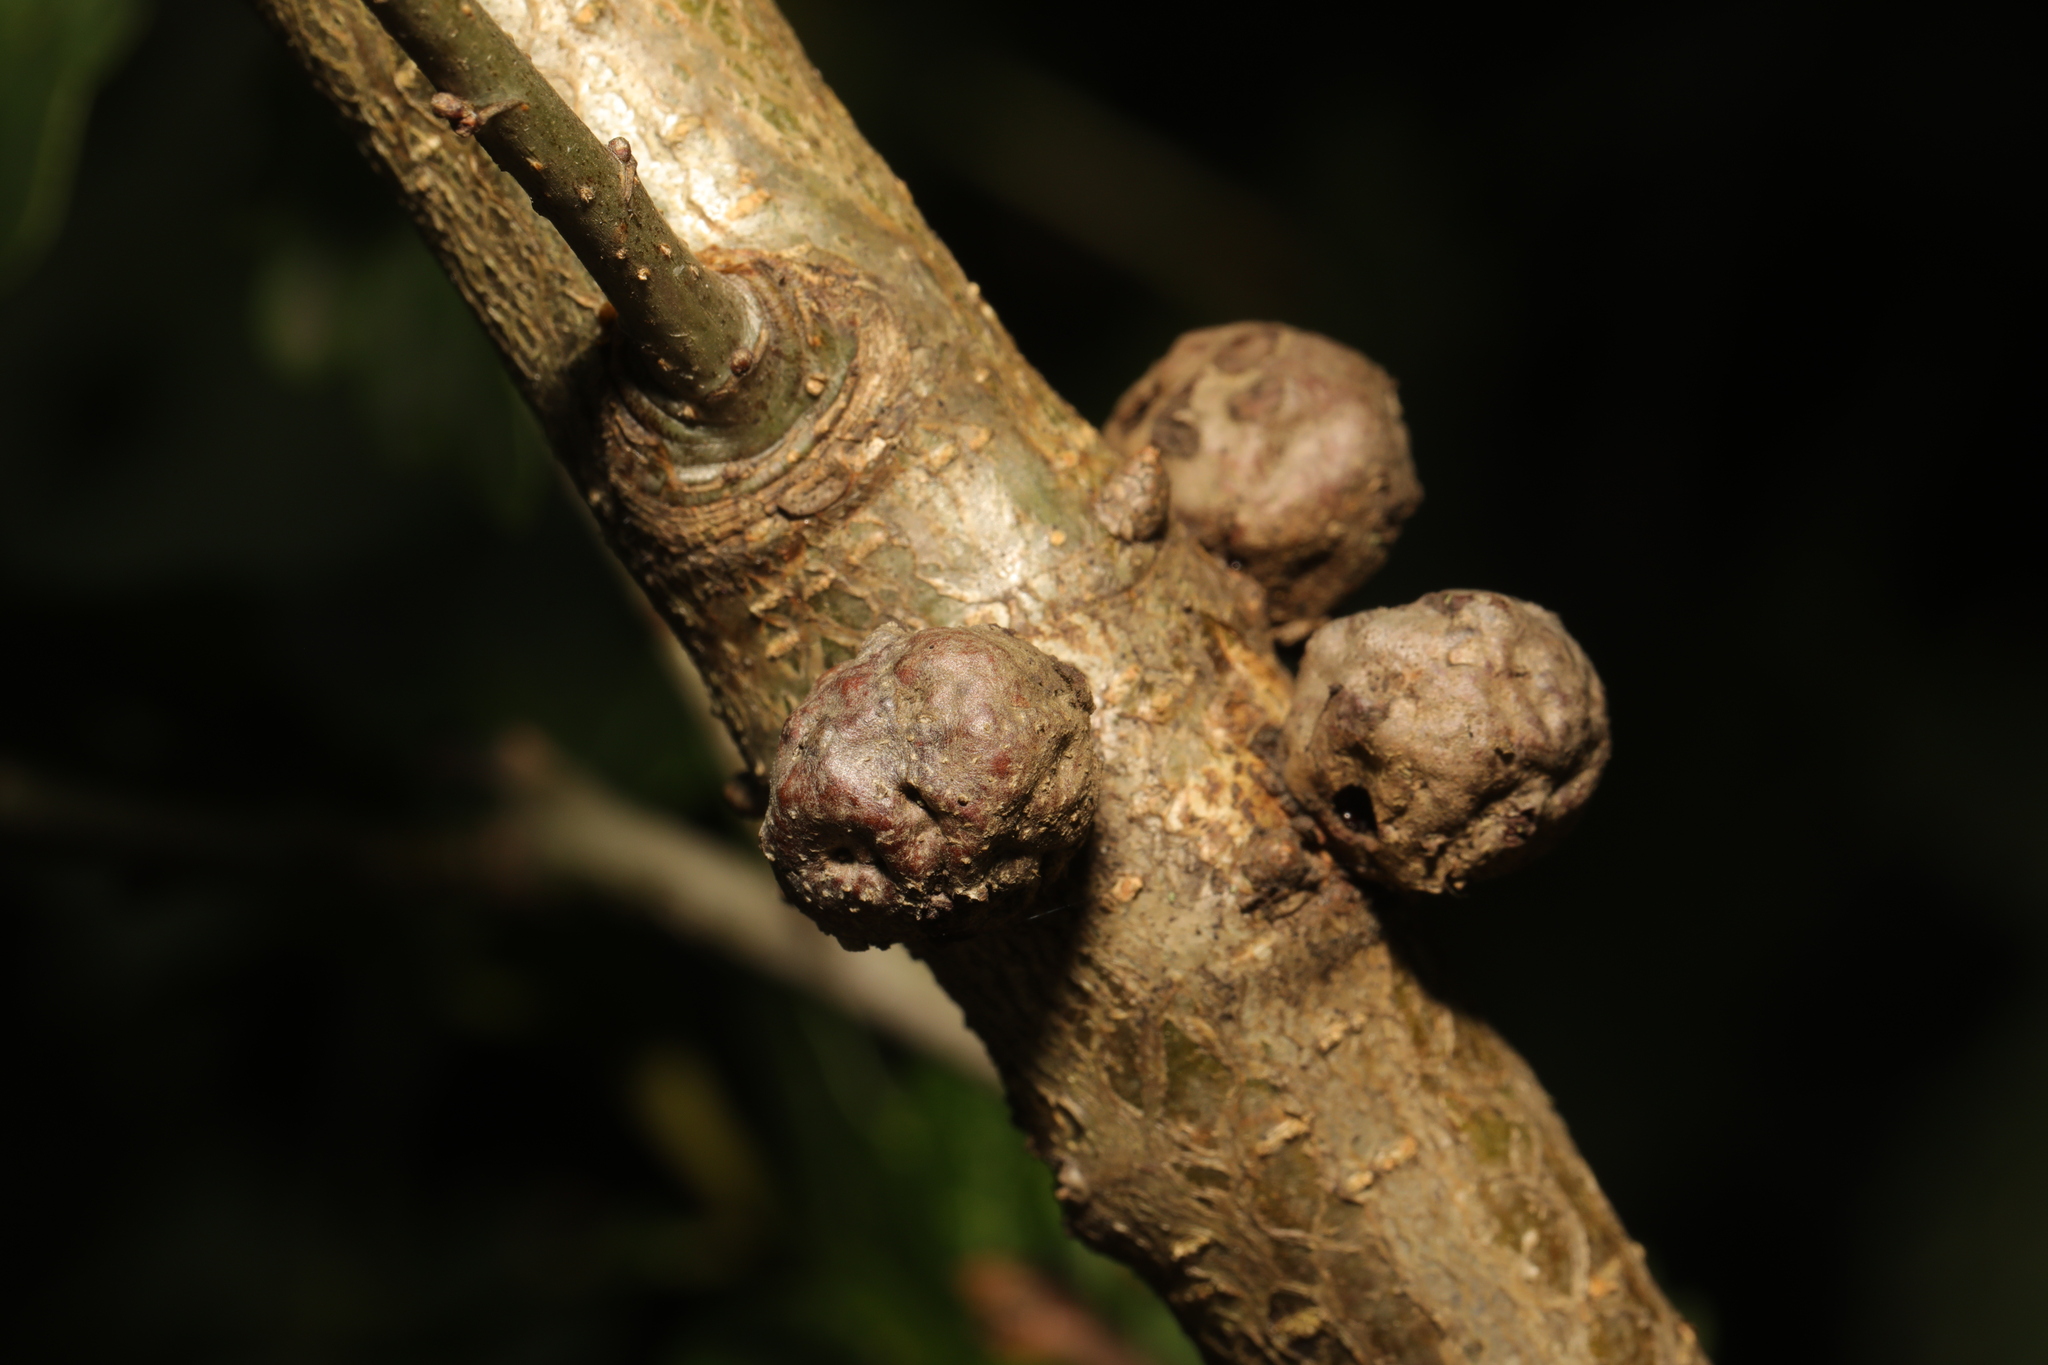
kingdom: Animalia
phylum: Arthropoda
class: Insecta
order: Hymenoptera
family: Cynipidae
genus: Andricus
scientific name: Andricus lignicolus
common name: Cola-nut gall
